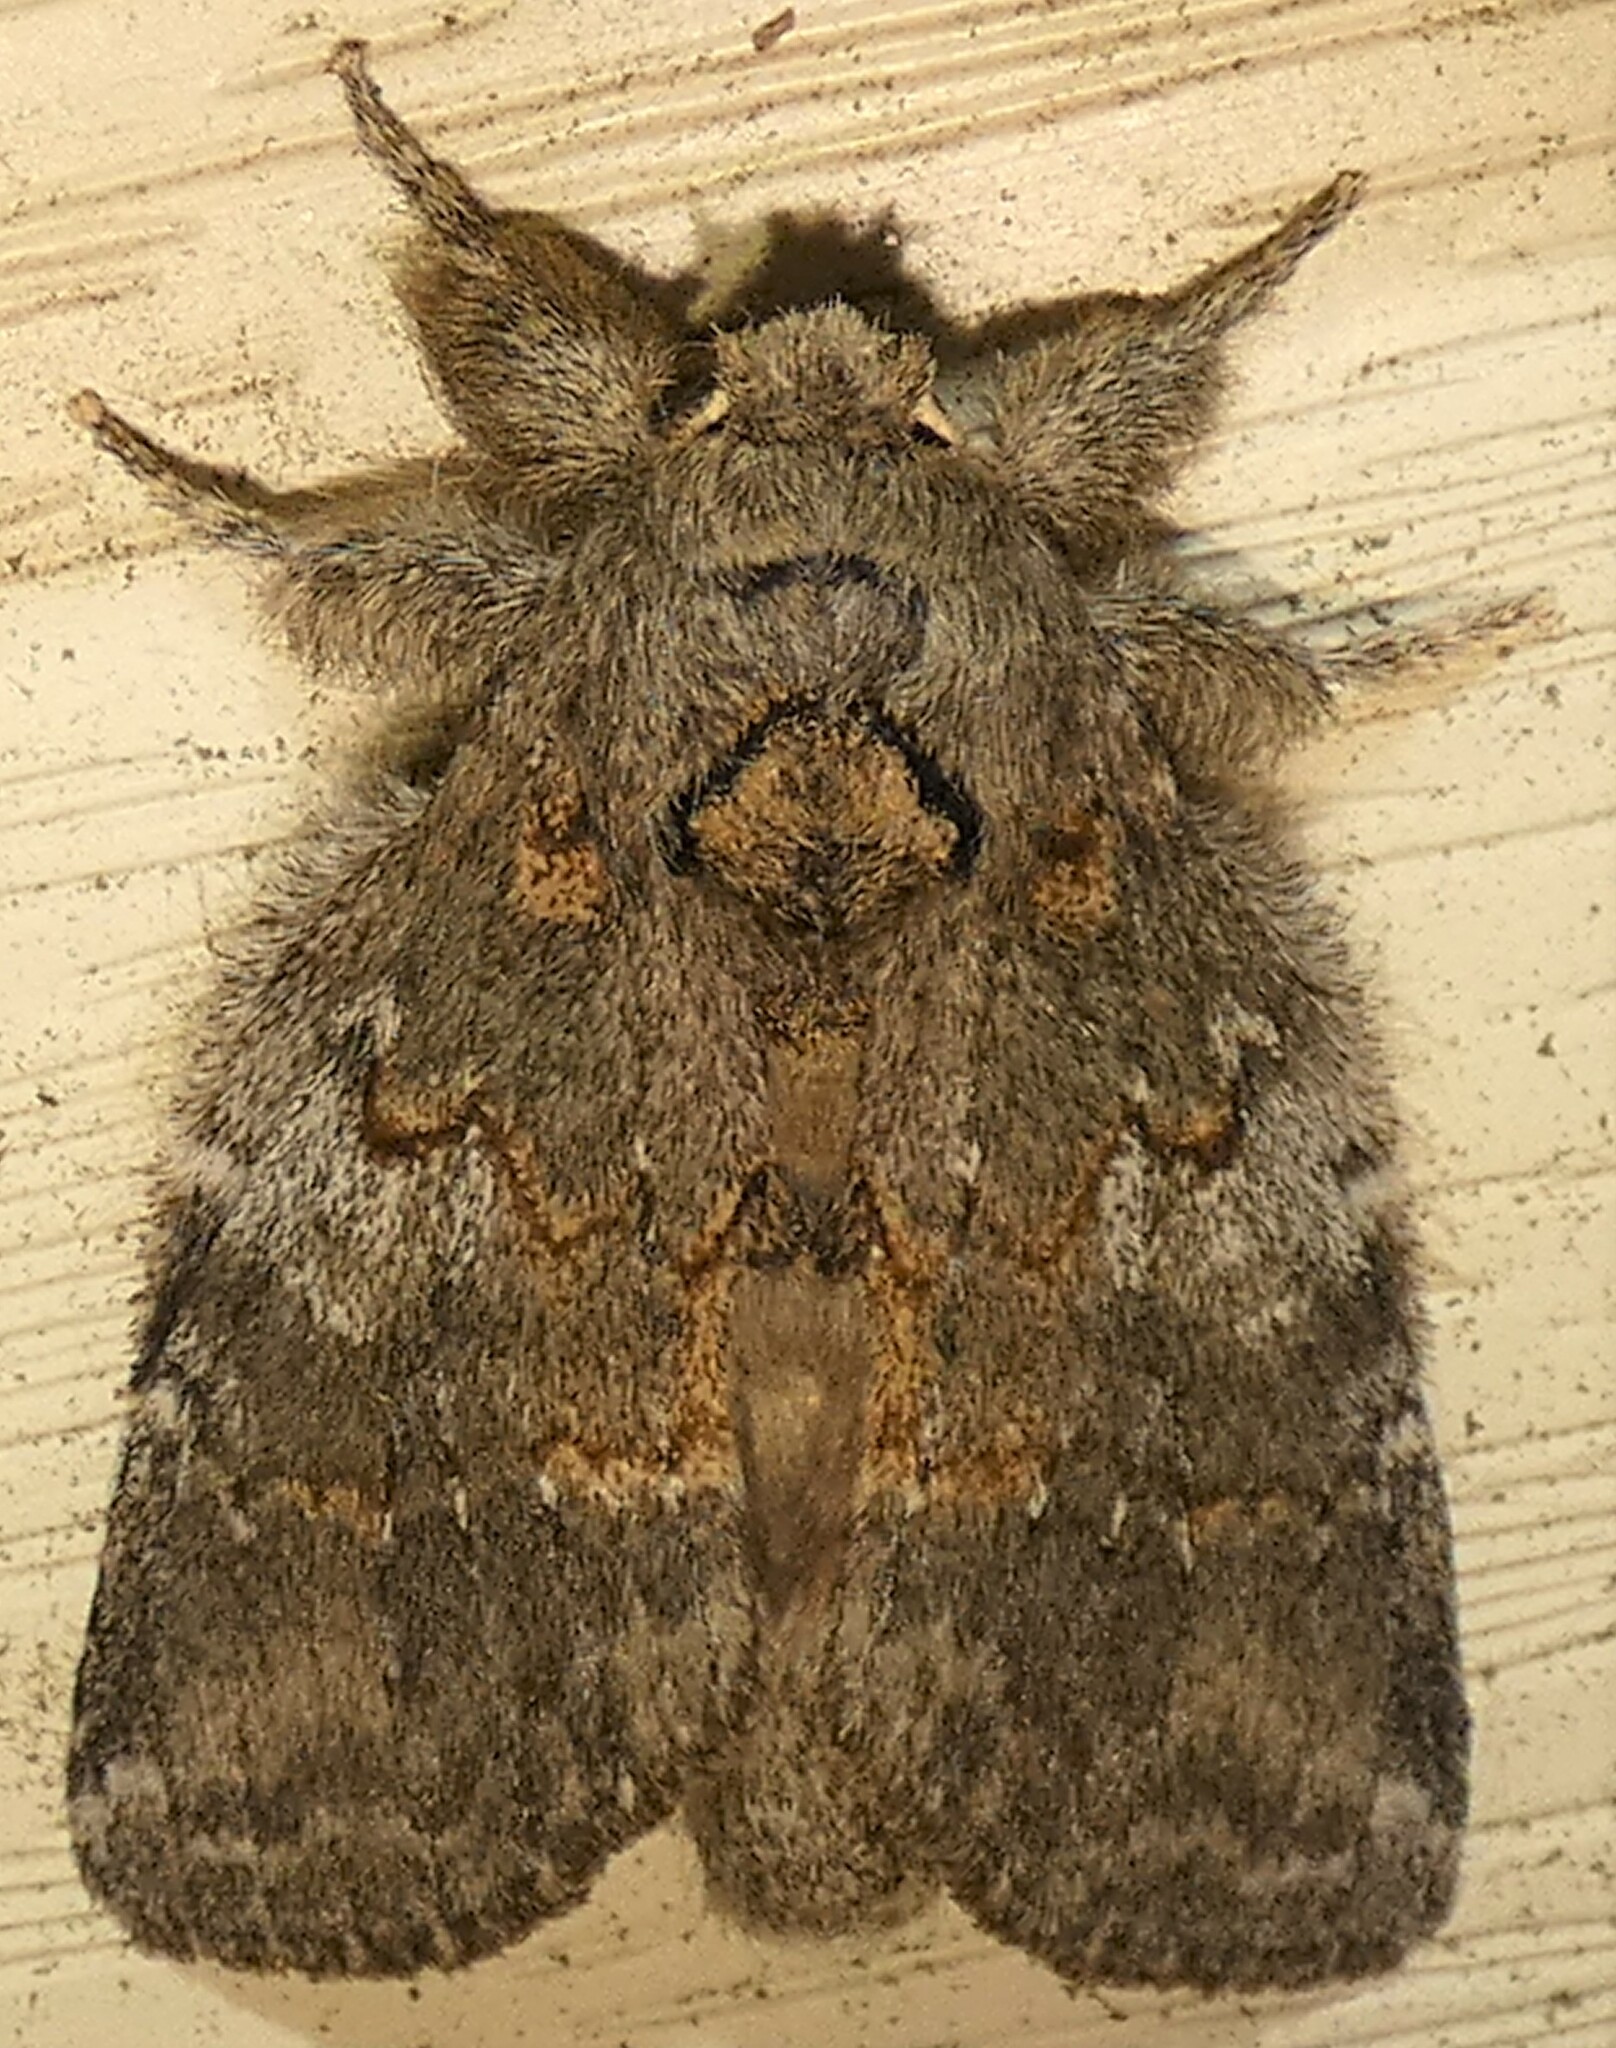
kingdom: Animalia
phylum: Arthropoda
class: Insecta
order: Lepidoptera
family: Notodontidae
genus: Peridea
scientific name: Peridea angulosa
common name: Angulose prominent
